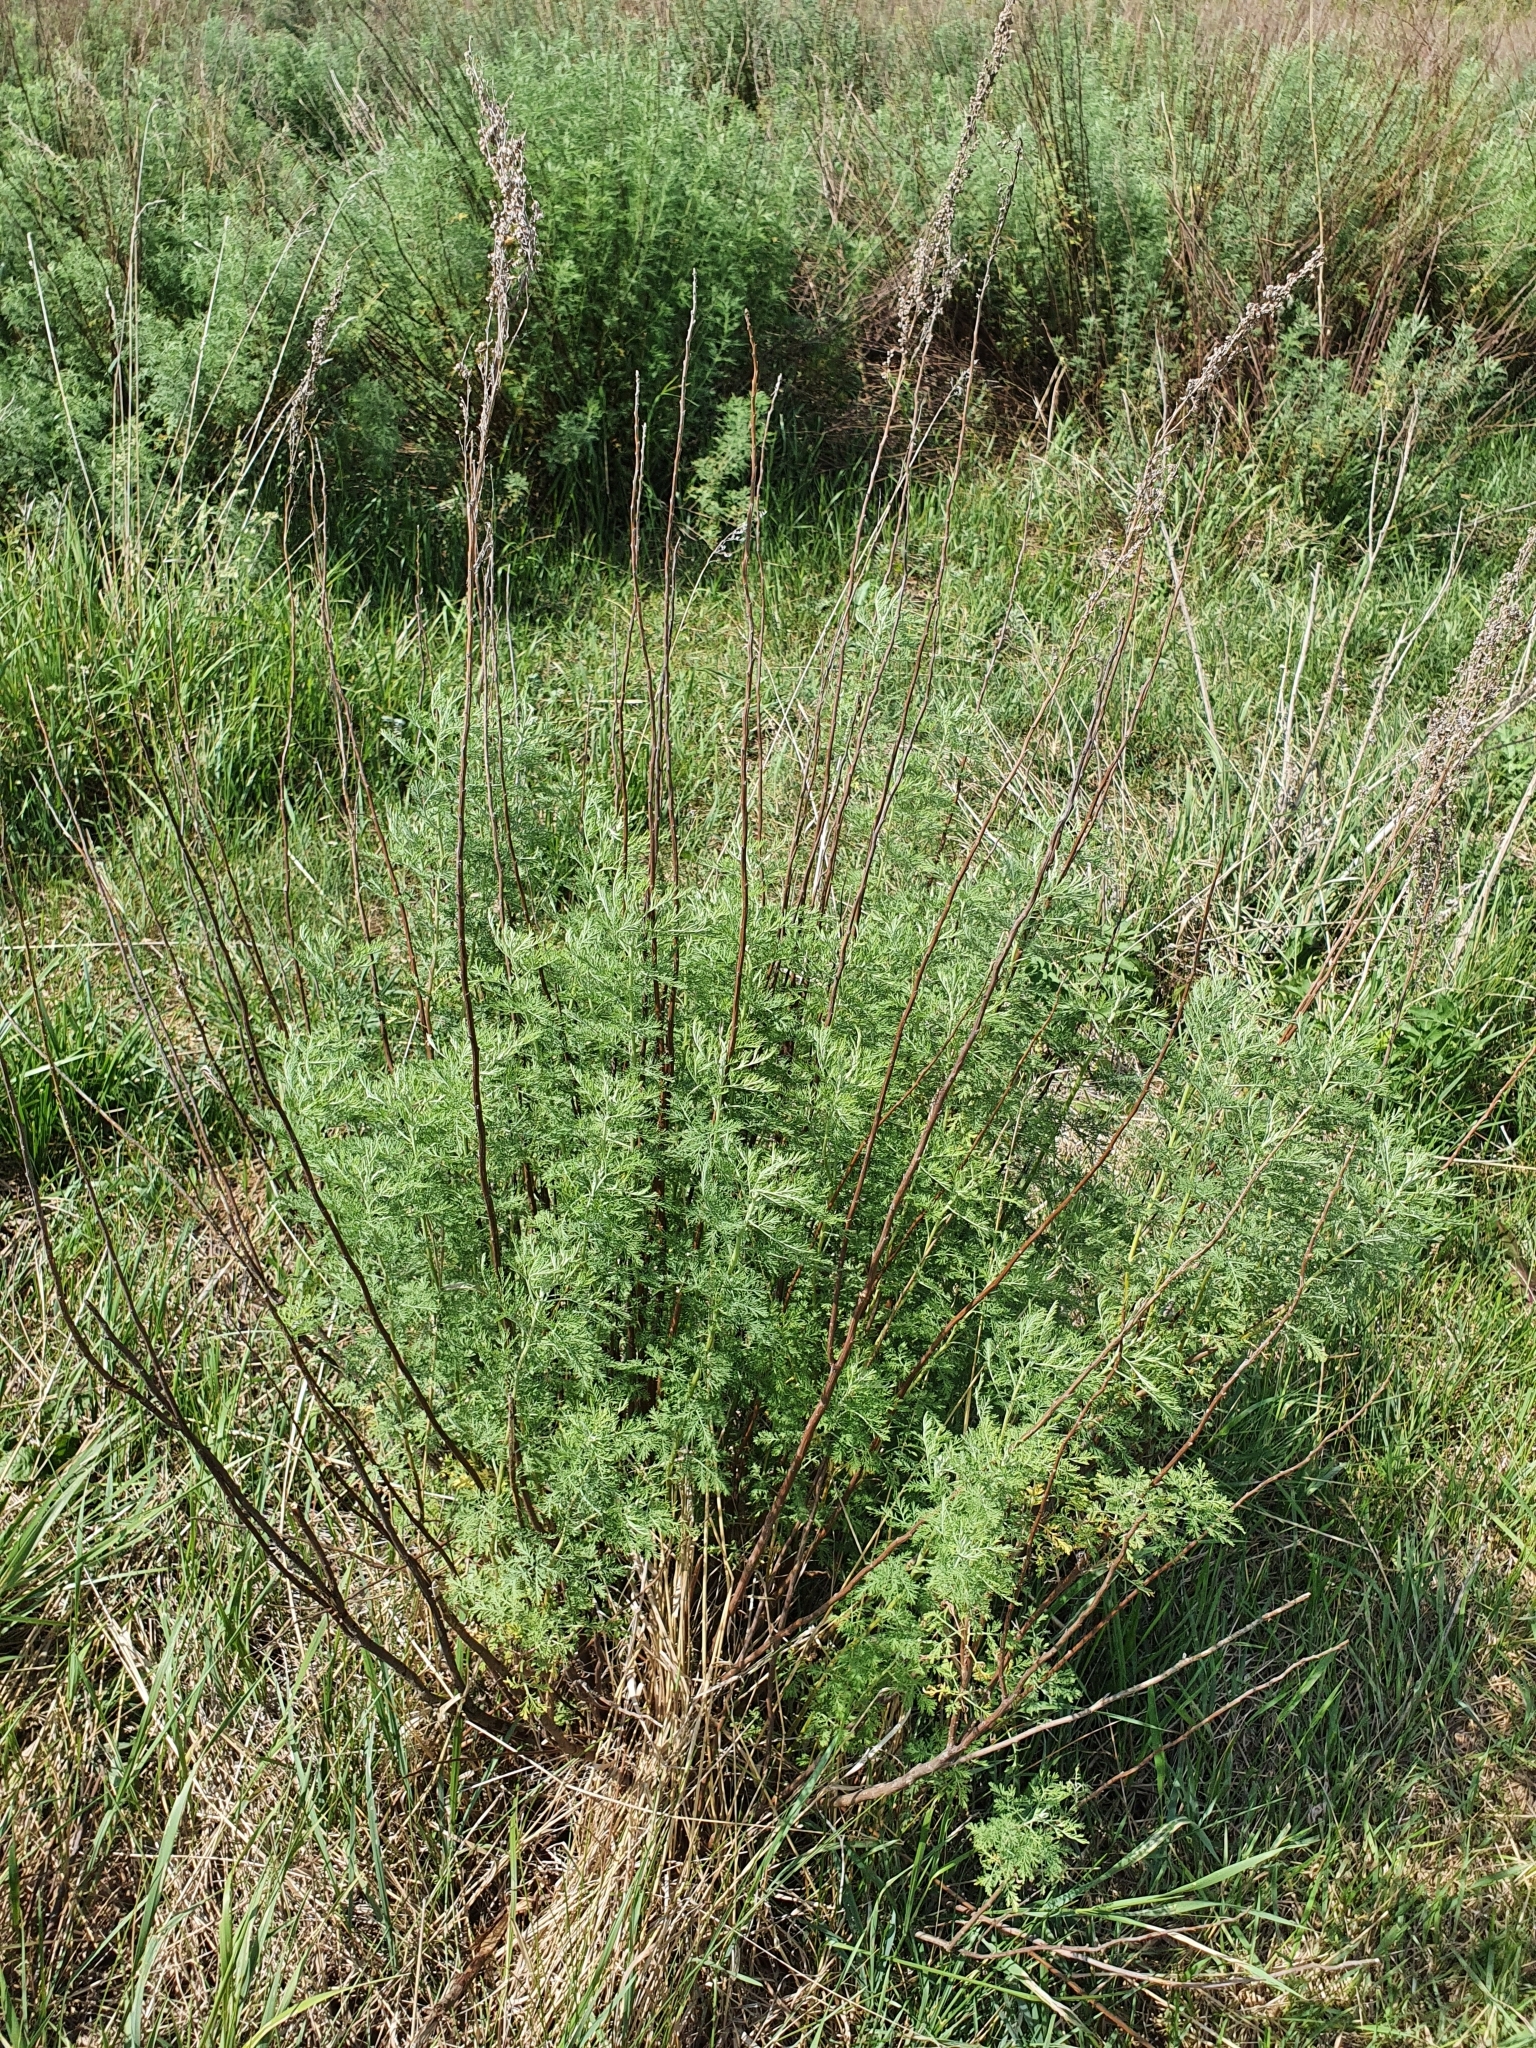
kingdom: Plantae
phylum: Tracheophyta
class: Magnoliopsida
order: Asterales
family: Asteraceae
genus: Artemisia
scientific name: Artemisia abrotanum
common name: Southernwood
